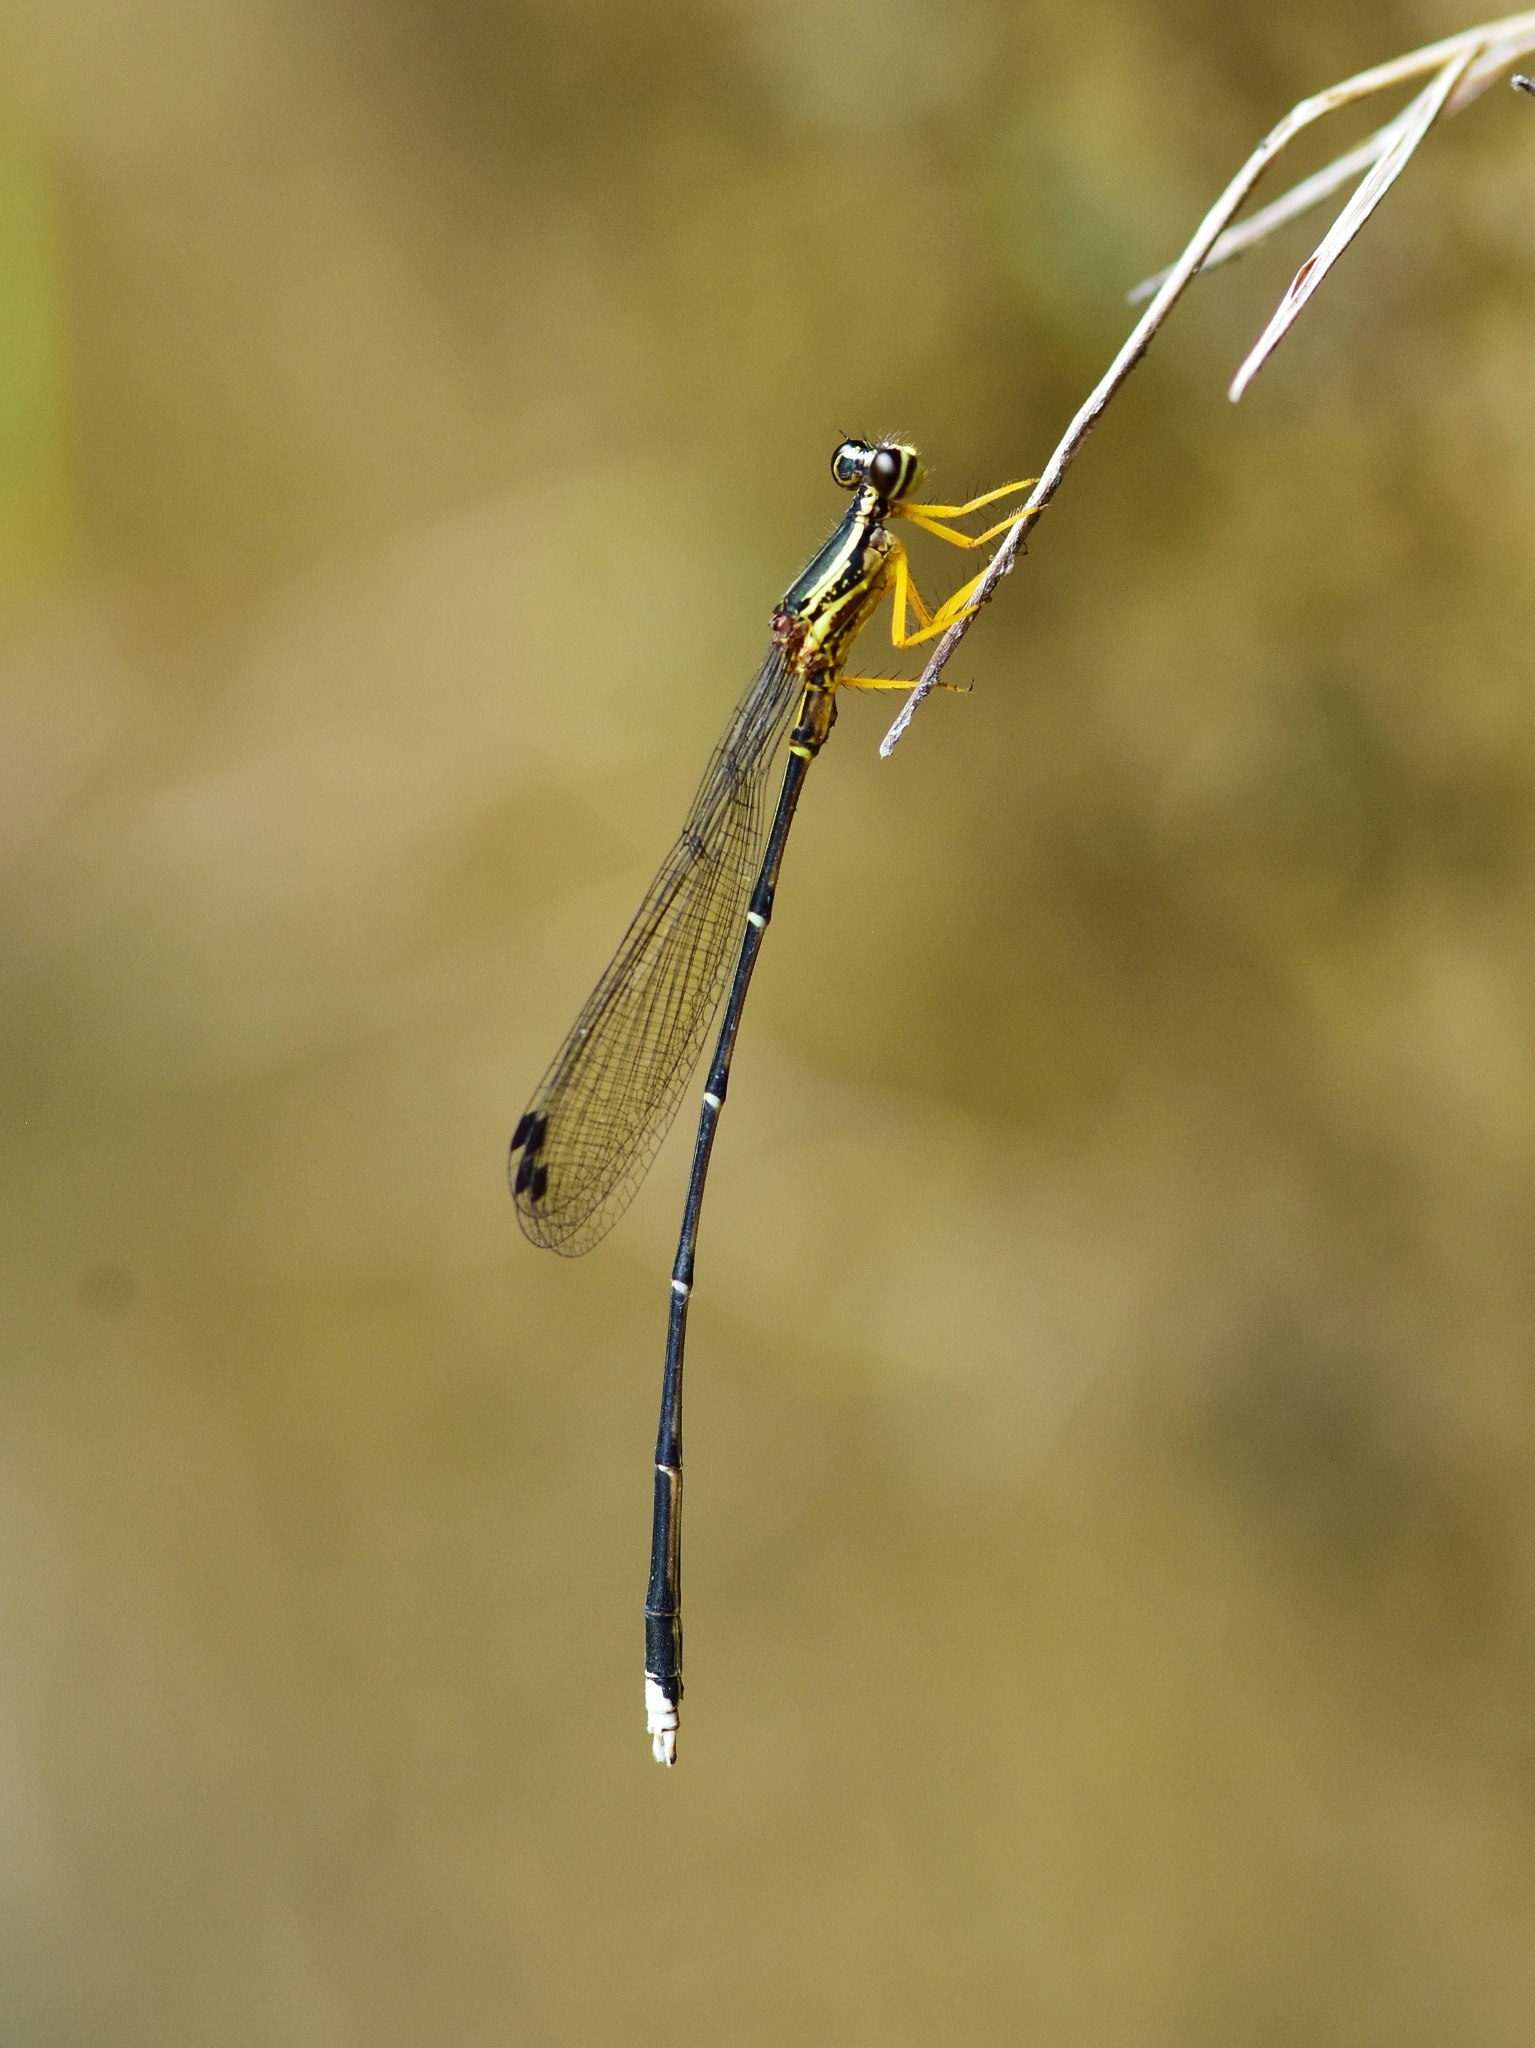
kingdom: Animalia
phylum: Arthropoda
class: Insecta
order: Odonata
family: Platycnemididae
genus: Copera
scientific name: Copera marginipes
